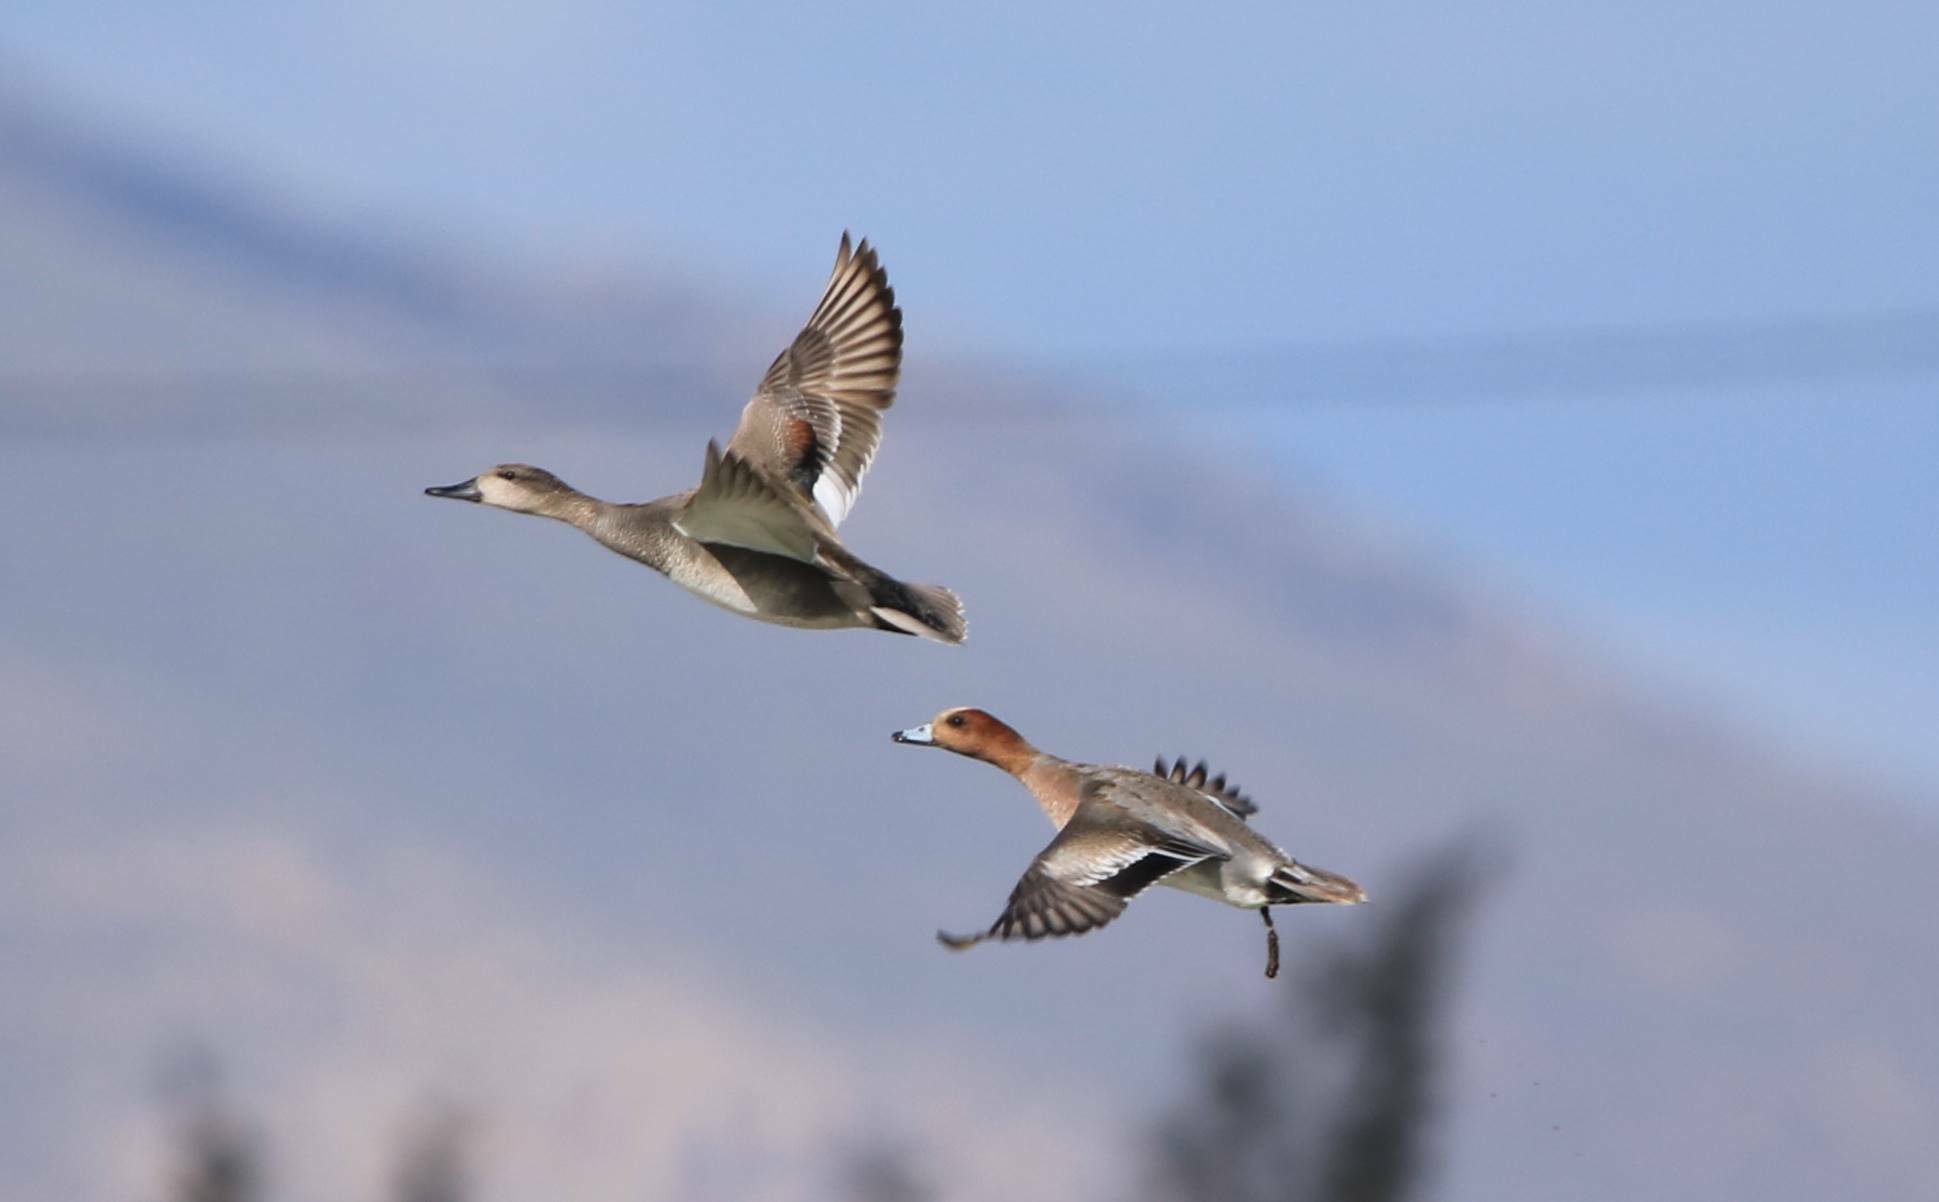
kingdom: Animalia
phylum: Chordata
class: Aves
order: Anseriformes
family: Anatidae
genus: Mareca
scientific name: Mareca penelope
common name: Eurasian wigeon
